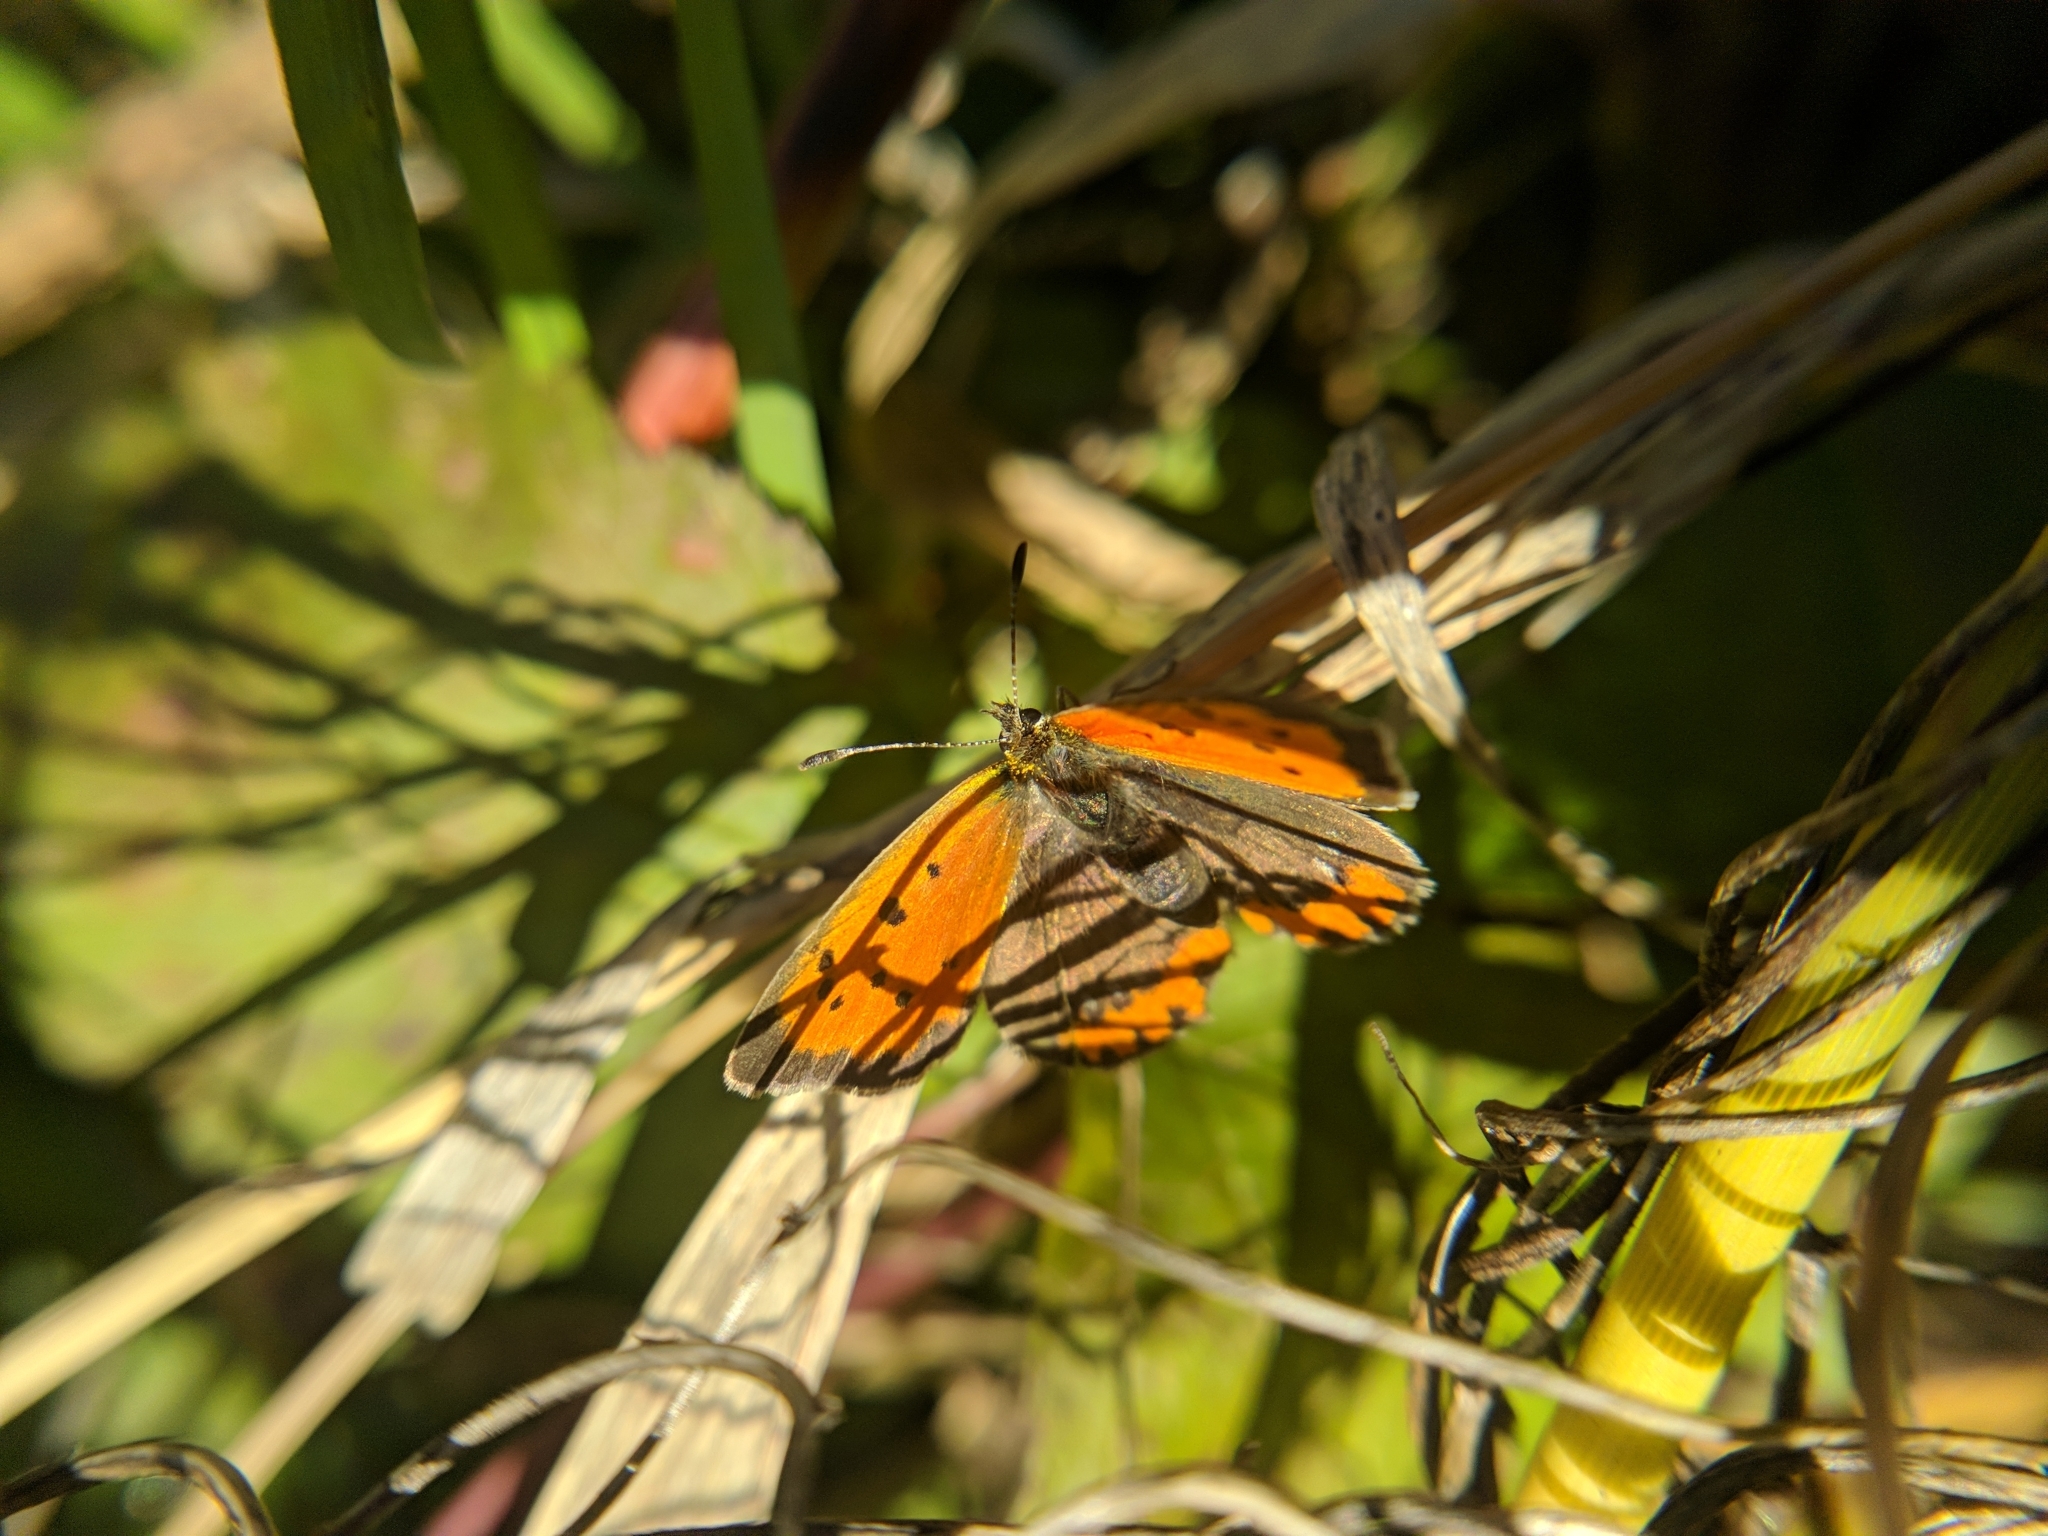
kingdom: Animalia
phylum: Arthropoda
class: Insecta
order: Lepidoptera
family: Lycaenidae
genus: Lycaena
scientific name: Lycaena phlaeas
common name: Small copper
